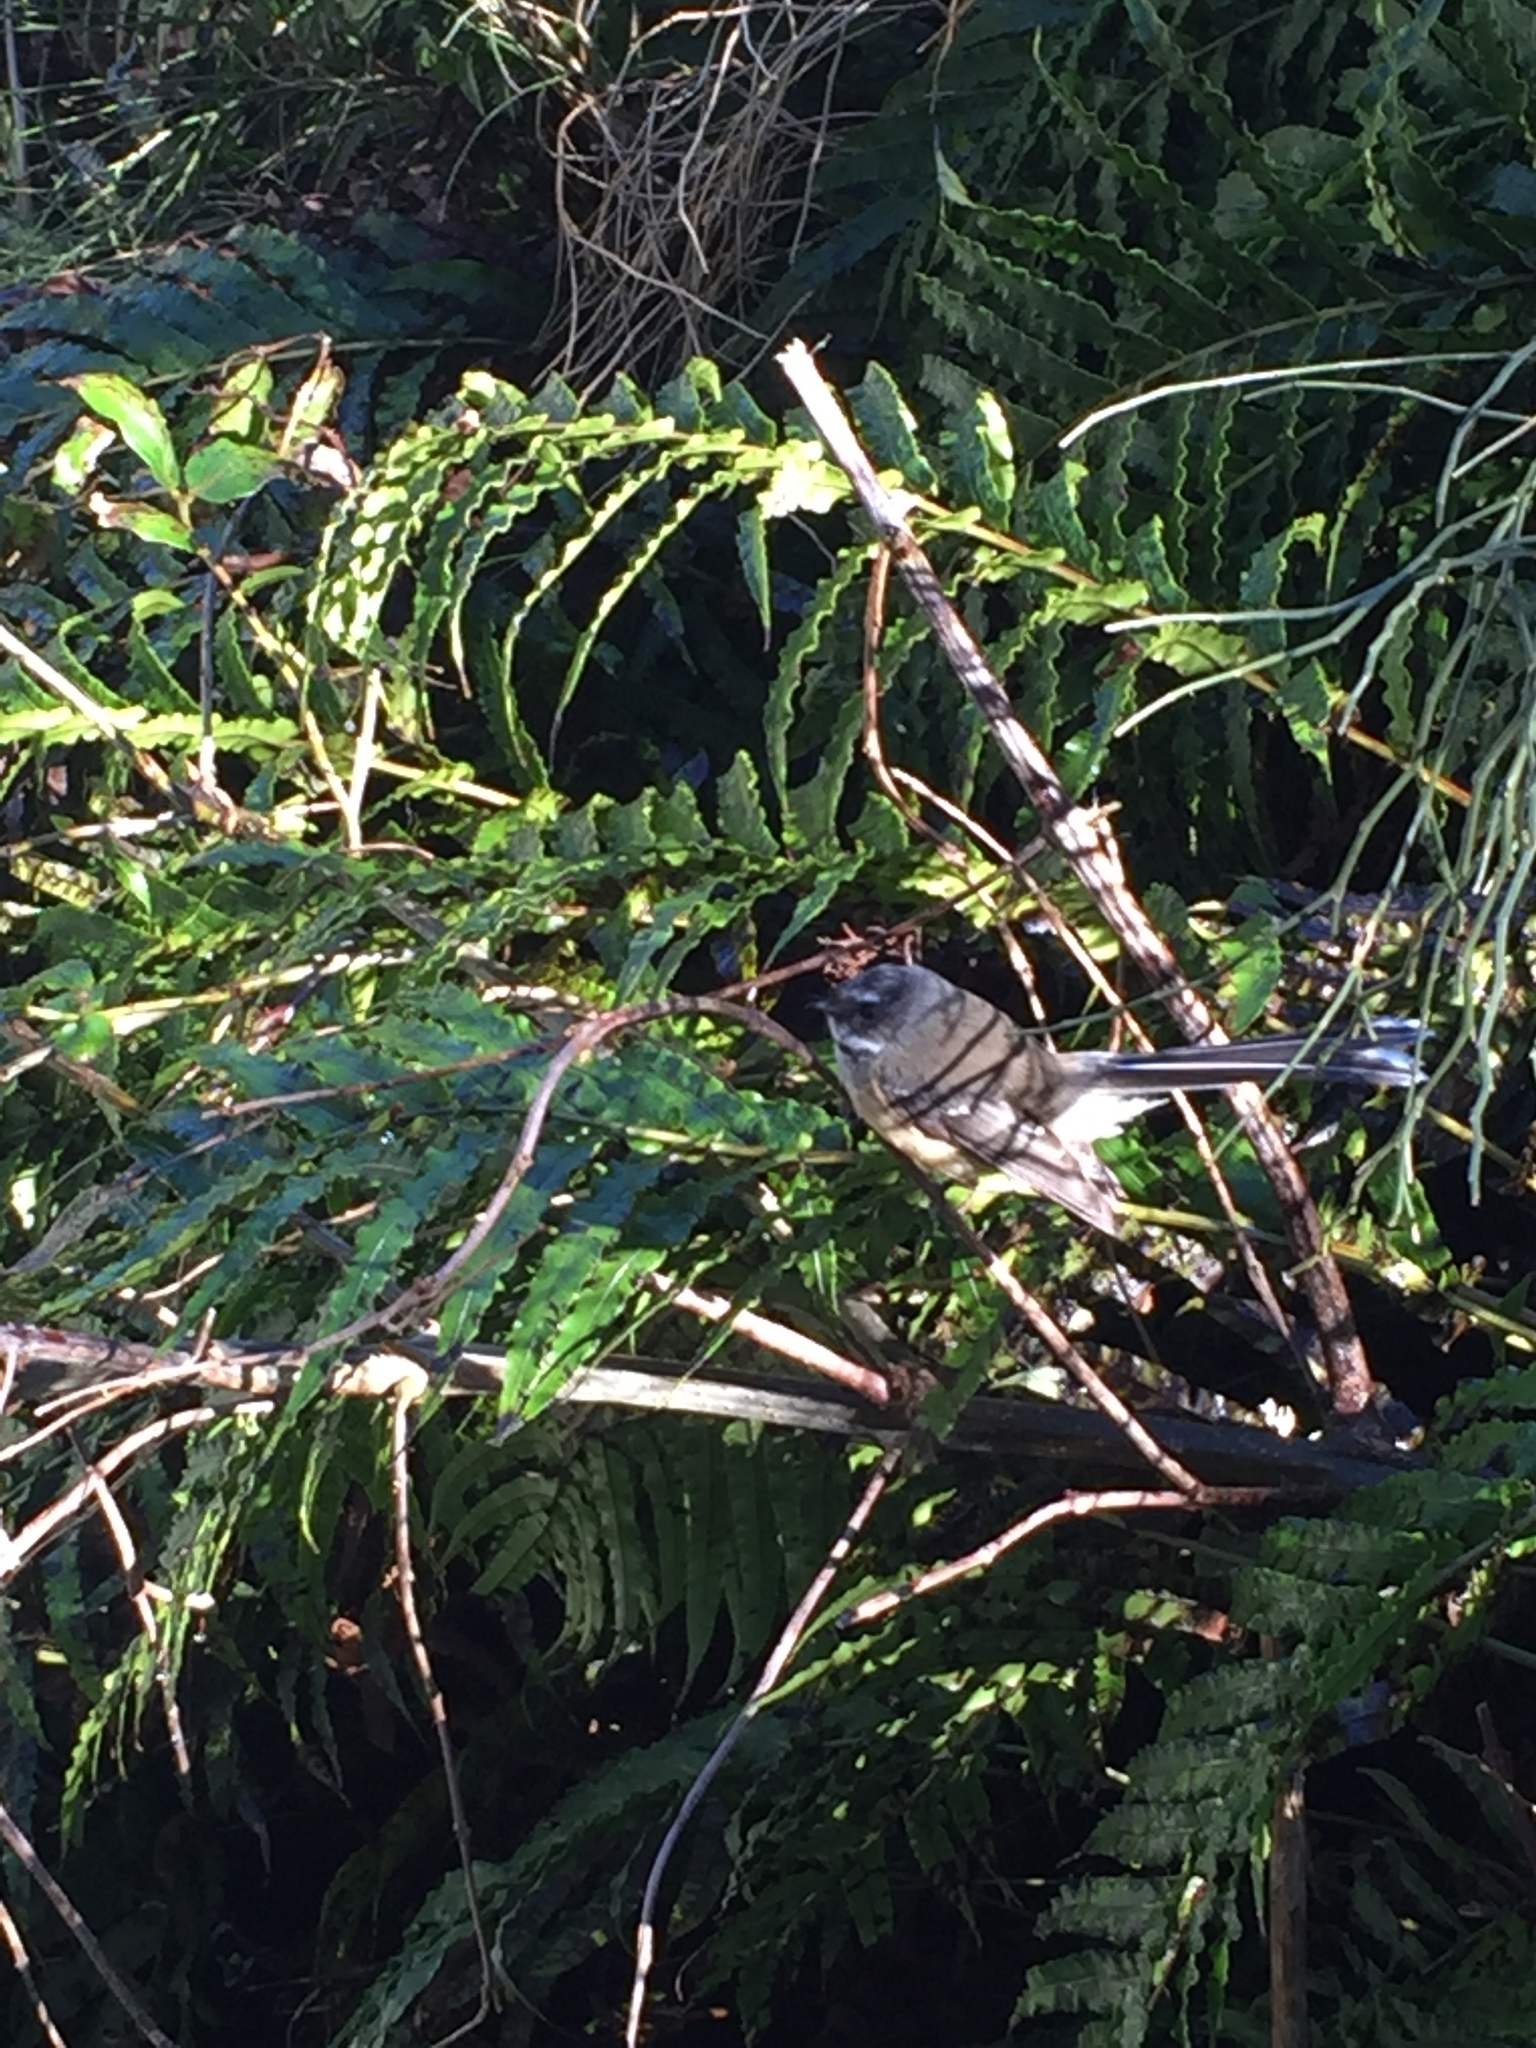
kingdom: Animalia
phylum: Chordata
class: Aves
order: Passeriformes
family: Rhipiduridae
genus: Rhipidura
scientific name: Rhipidura fuliginosa
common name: New zealand fantail
